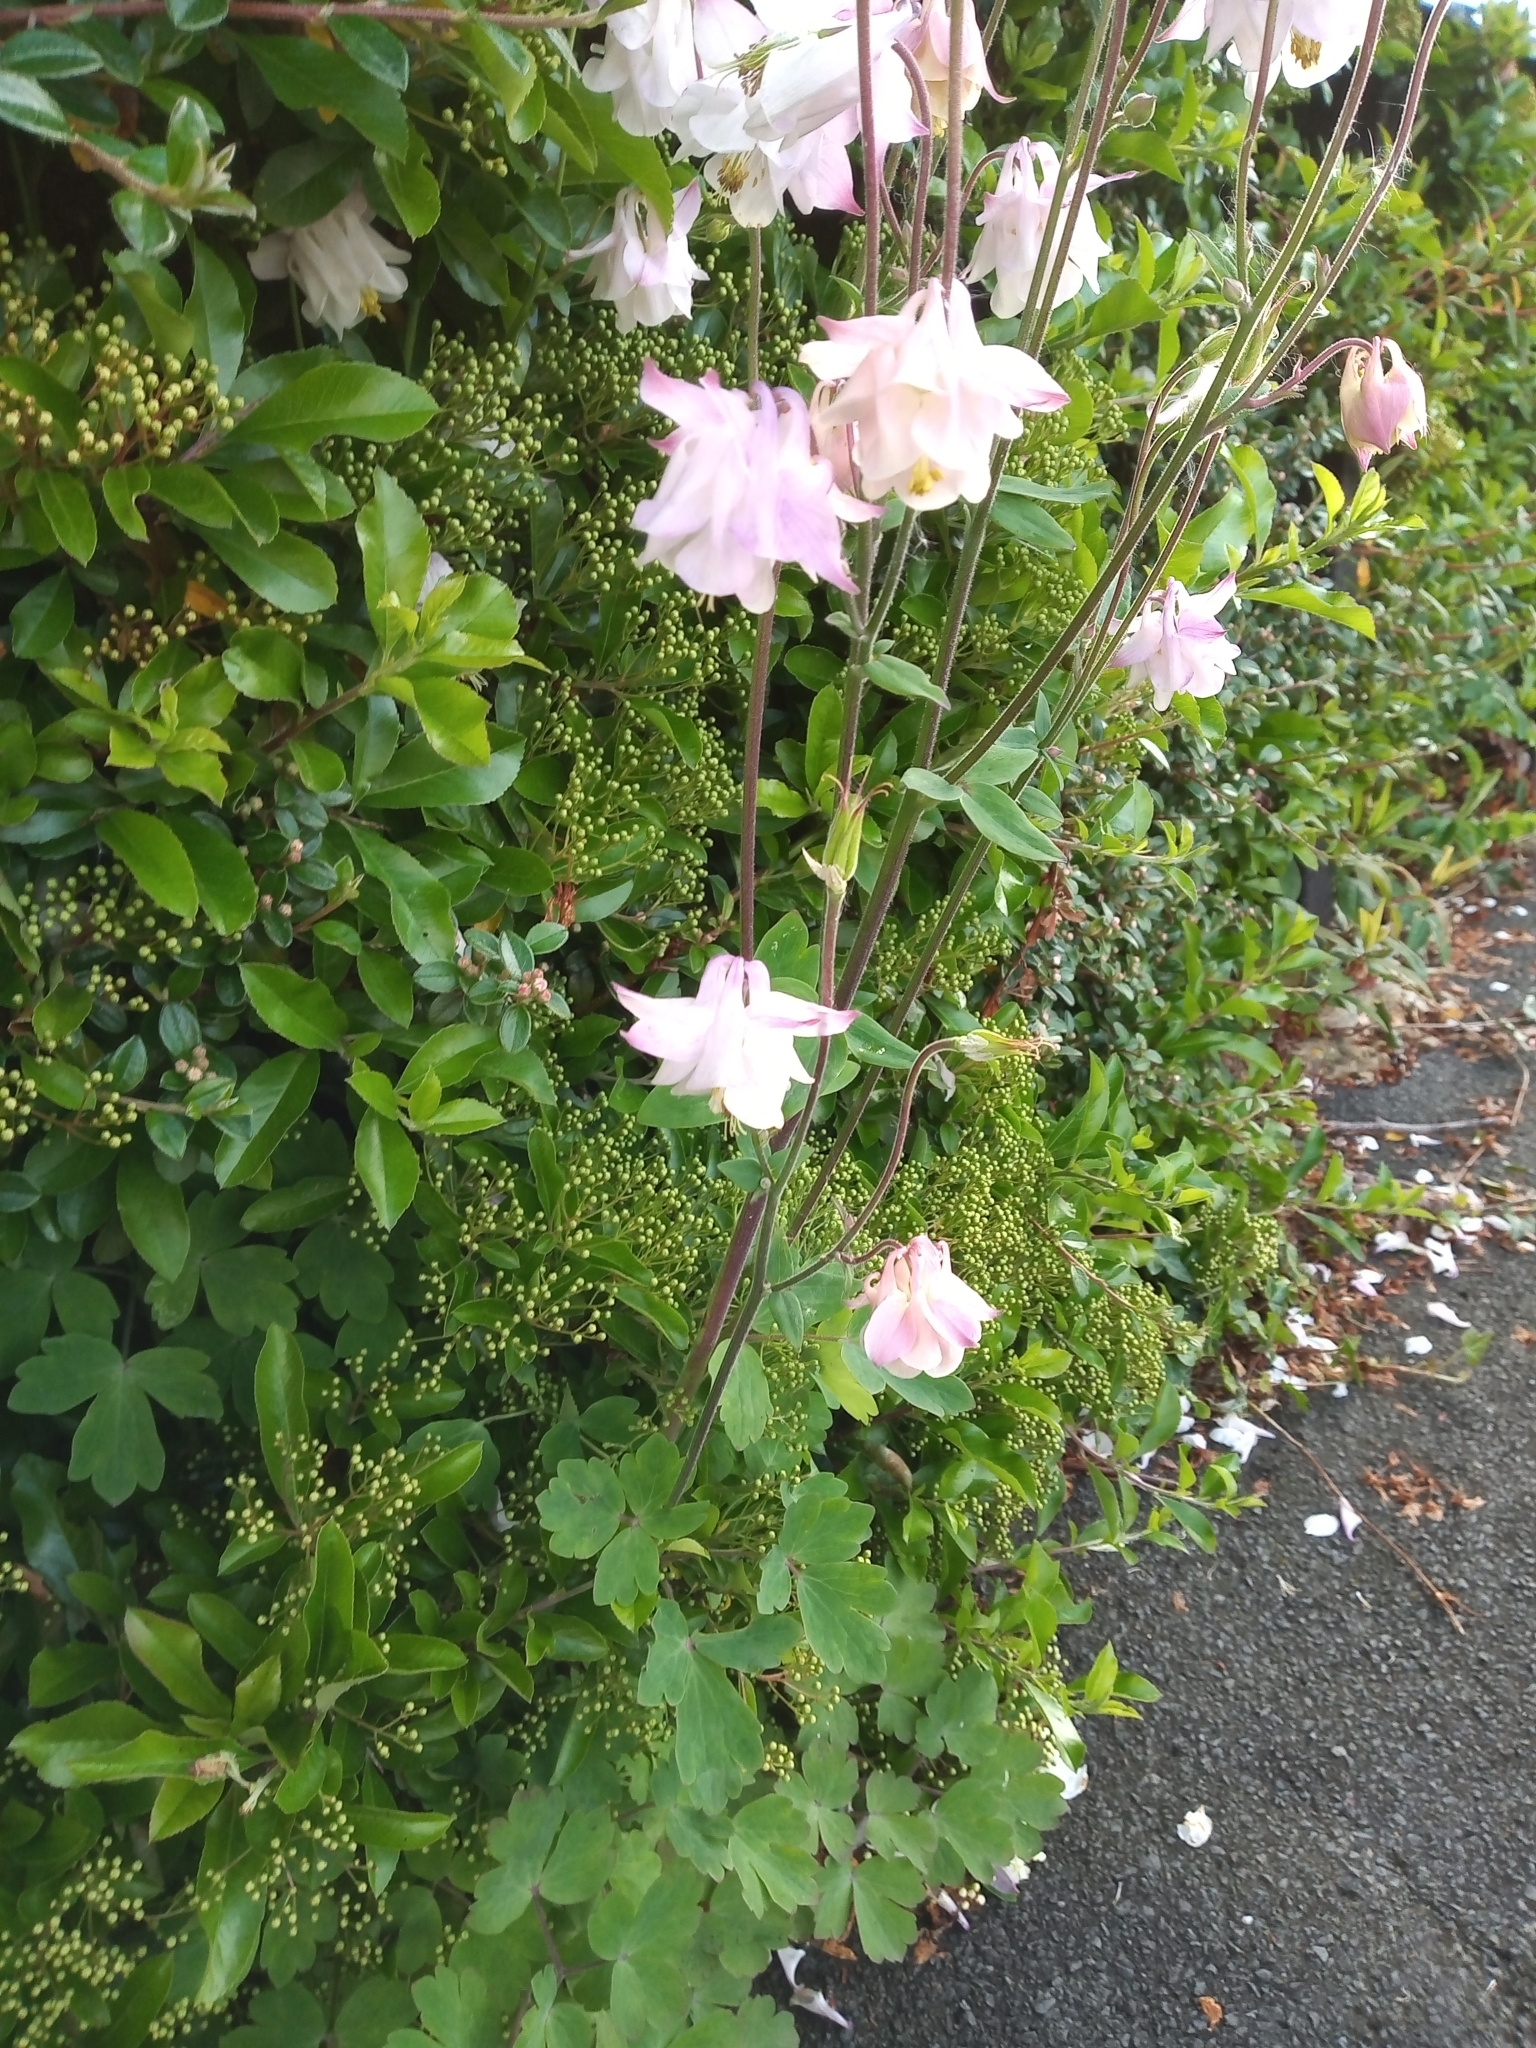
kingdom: Plantae
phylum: Tracheophyta
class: Magnoliopsida
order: Ranunculales
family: Ranunculaceae
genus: Aquilegia
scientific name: Aquilegia vulgaris
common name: Columbine
